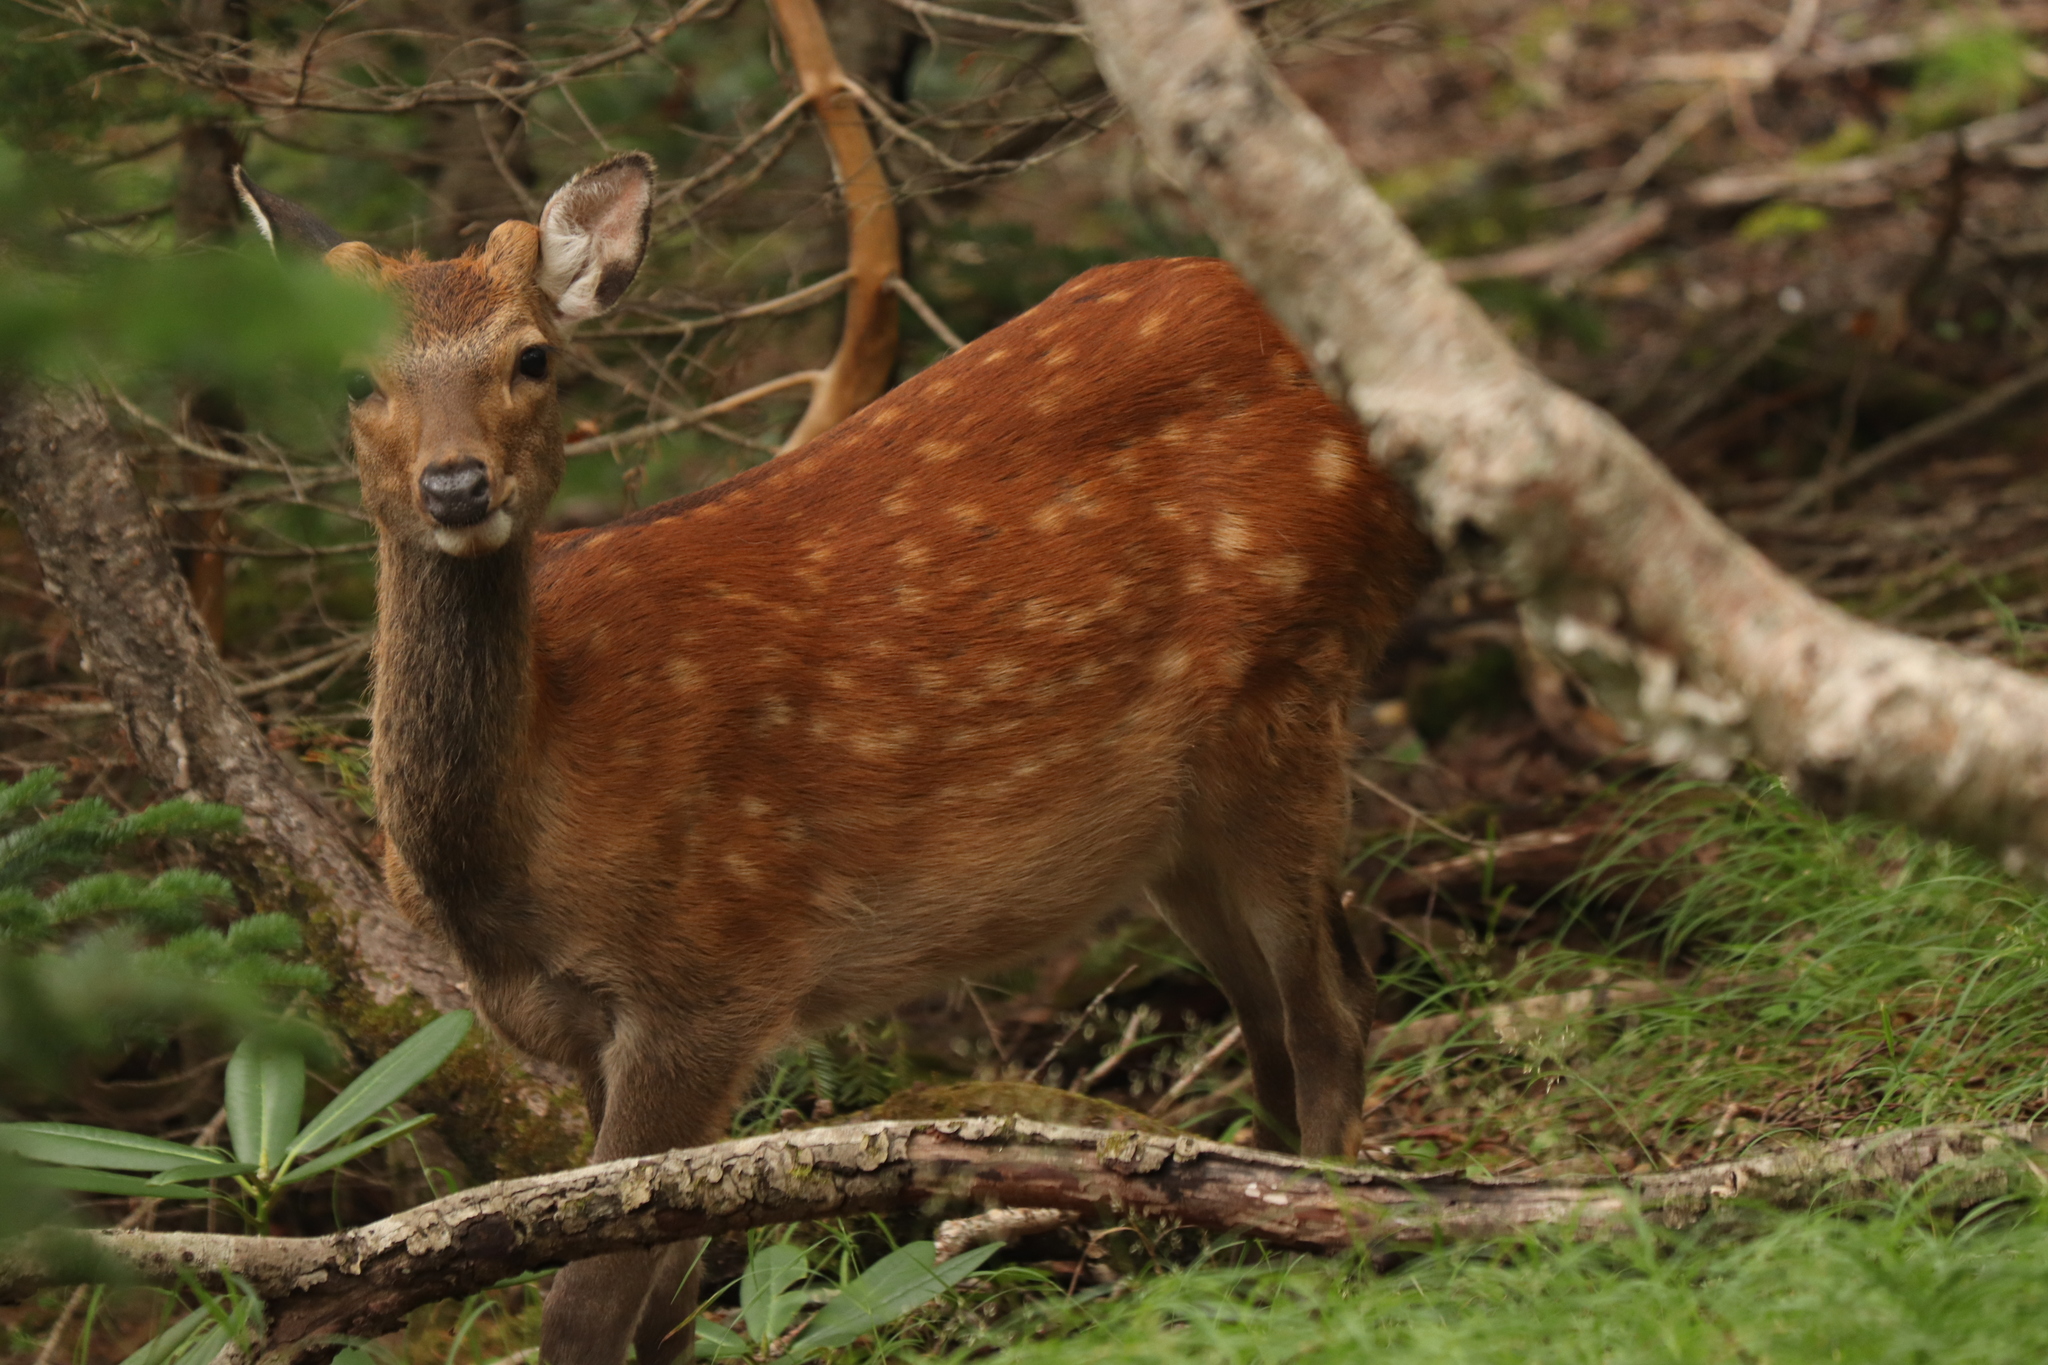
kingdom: Animalia
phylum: Chordata
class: Mammalia
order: Artiodactyla
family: Cervidae
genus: Cervus
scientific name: Cervus nippon
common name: Sika deer
